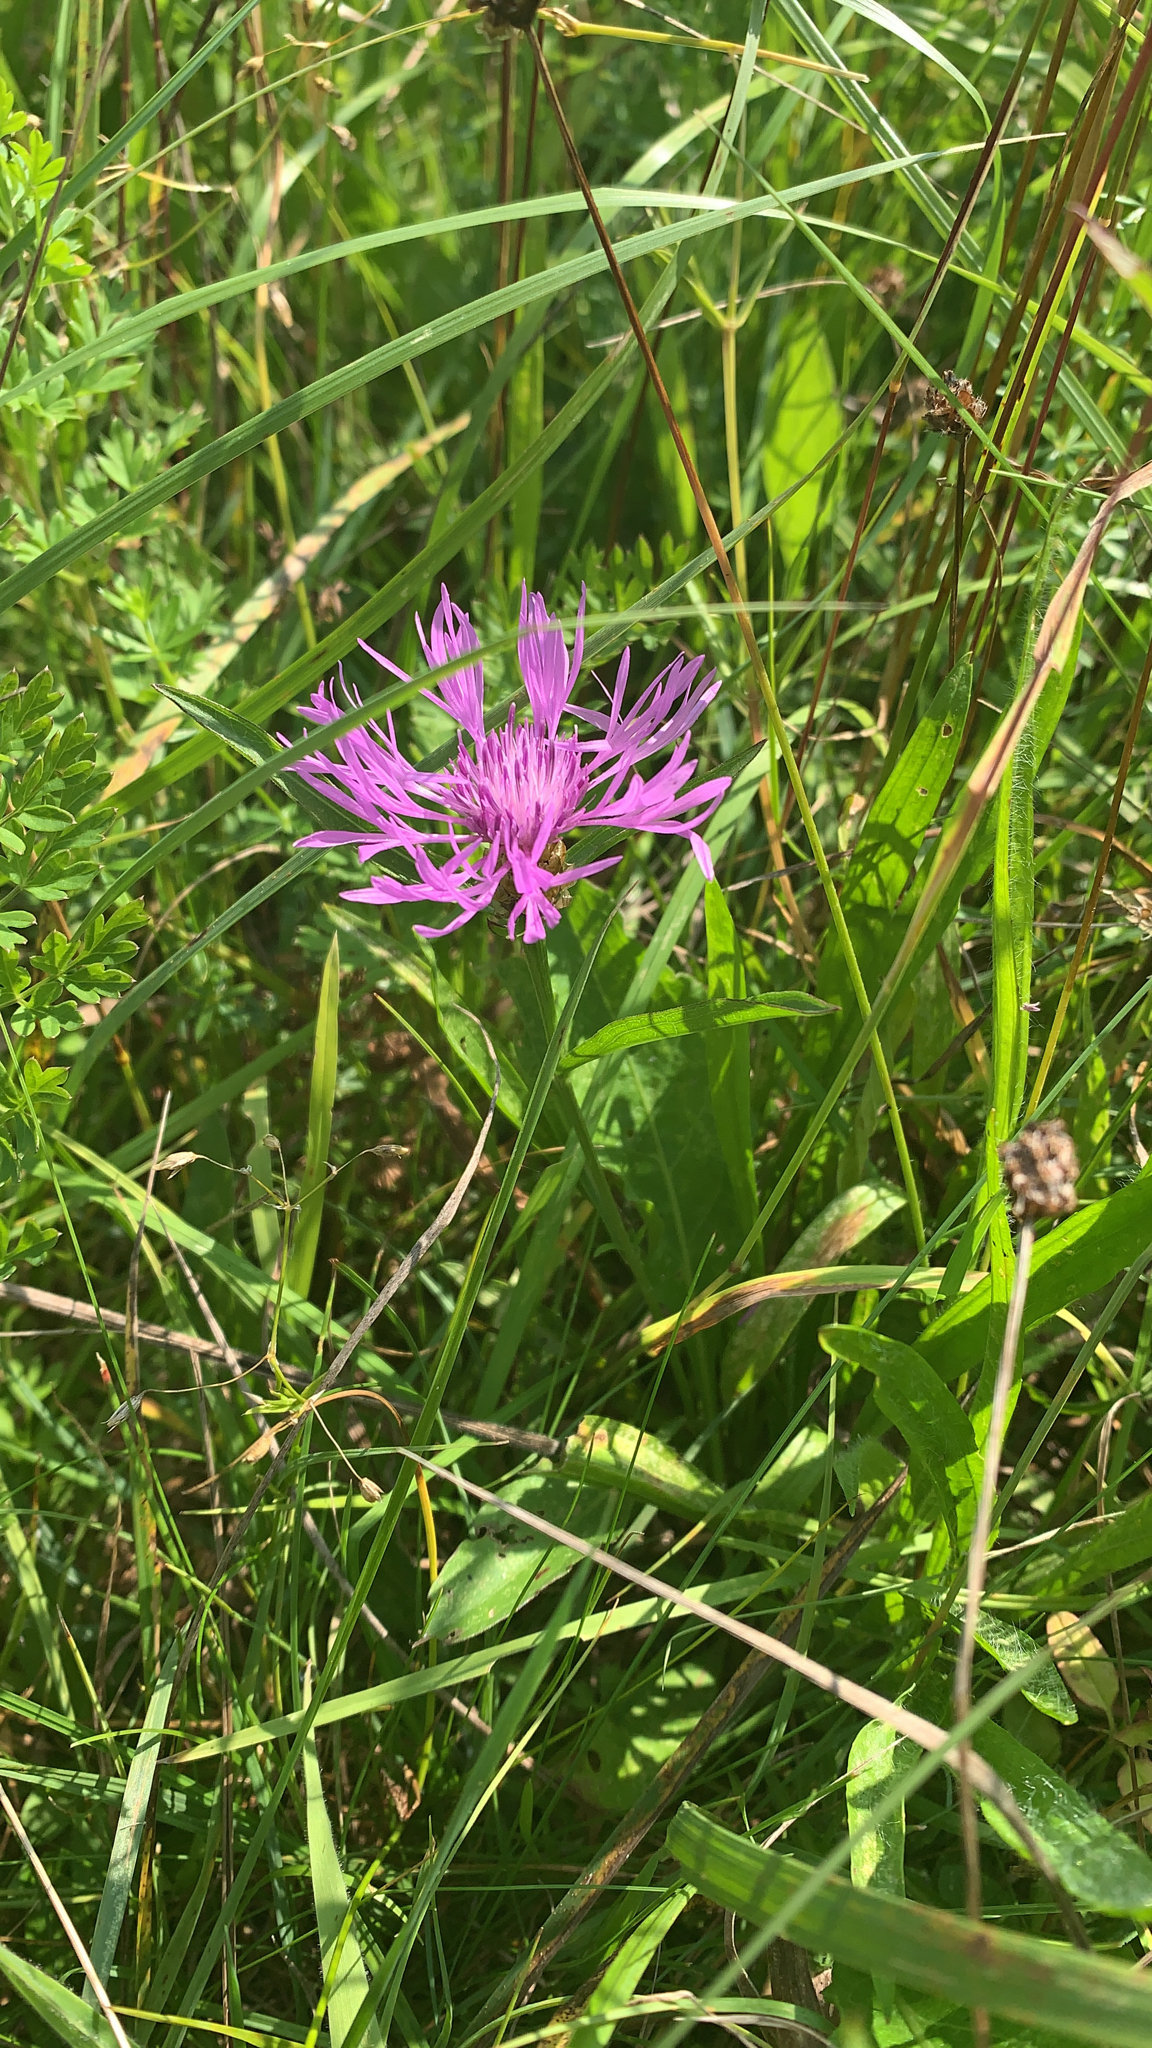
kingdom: Plantae
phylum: Tracheophyta
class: Magnoliopsida
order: Asterales
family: Asteraceae
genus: Centaurea
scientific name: Centaurea jacea
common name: Brown knapweed
